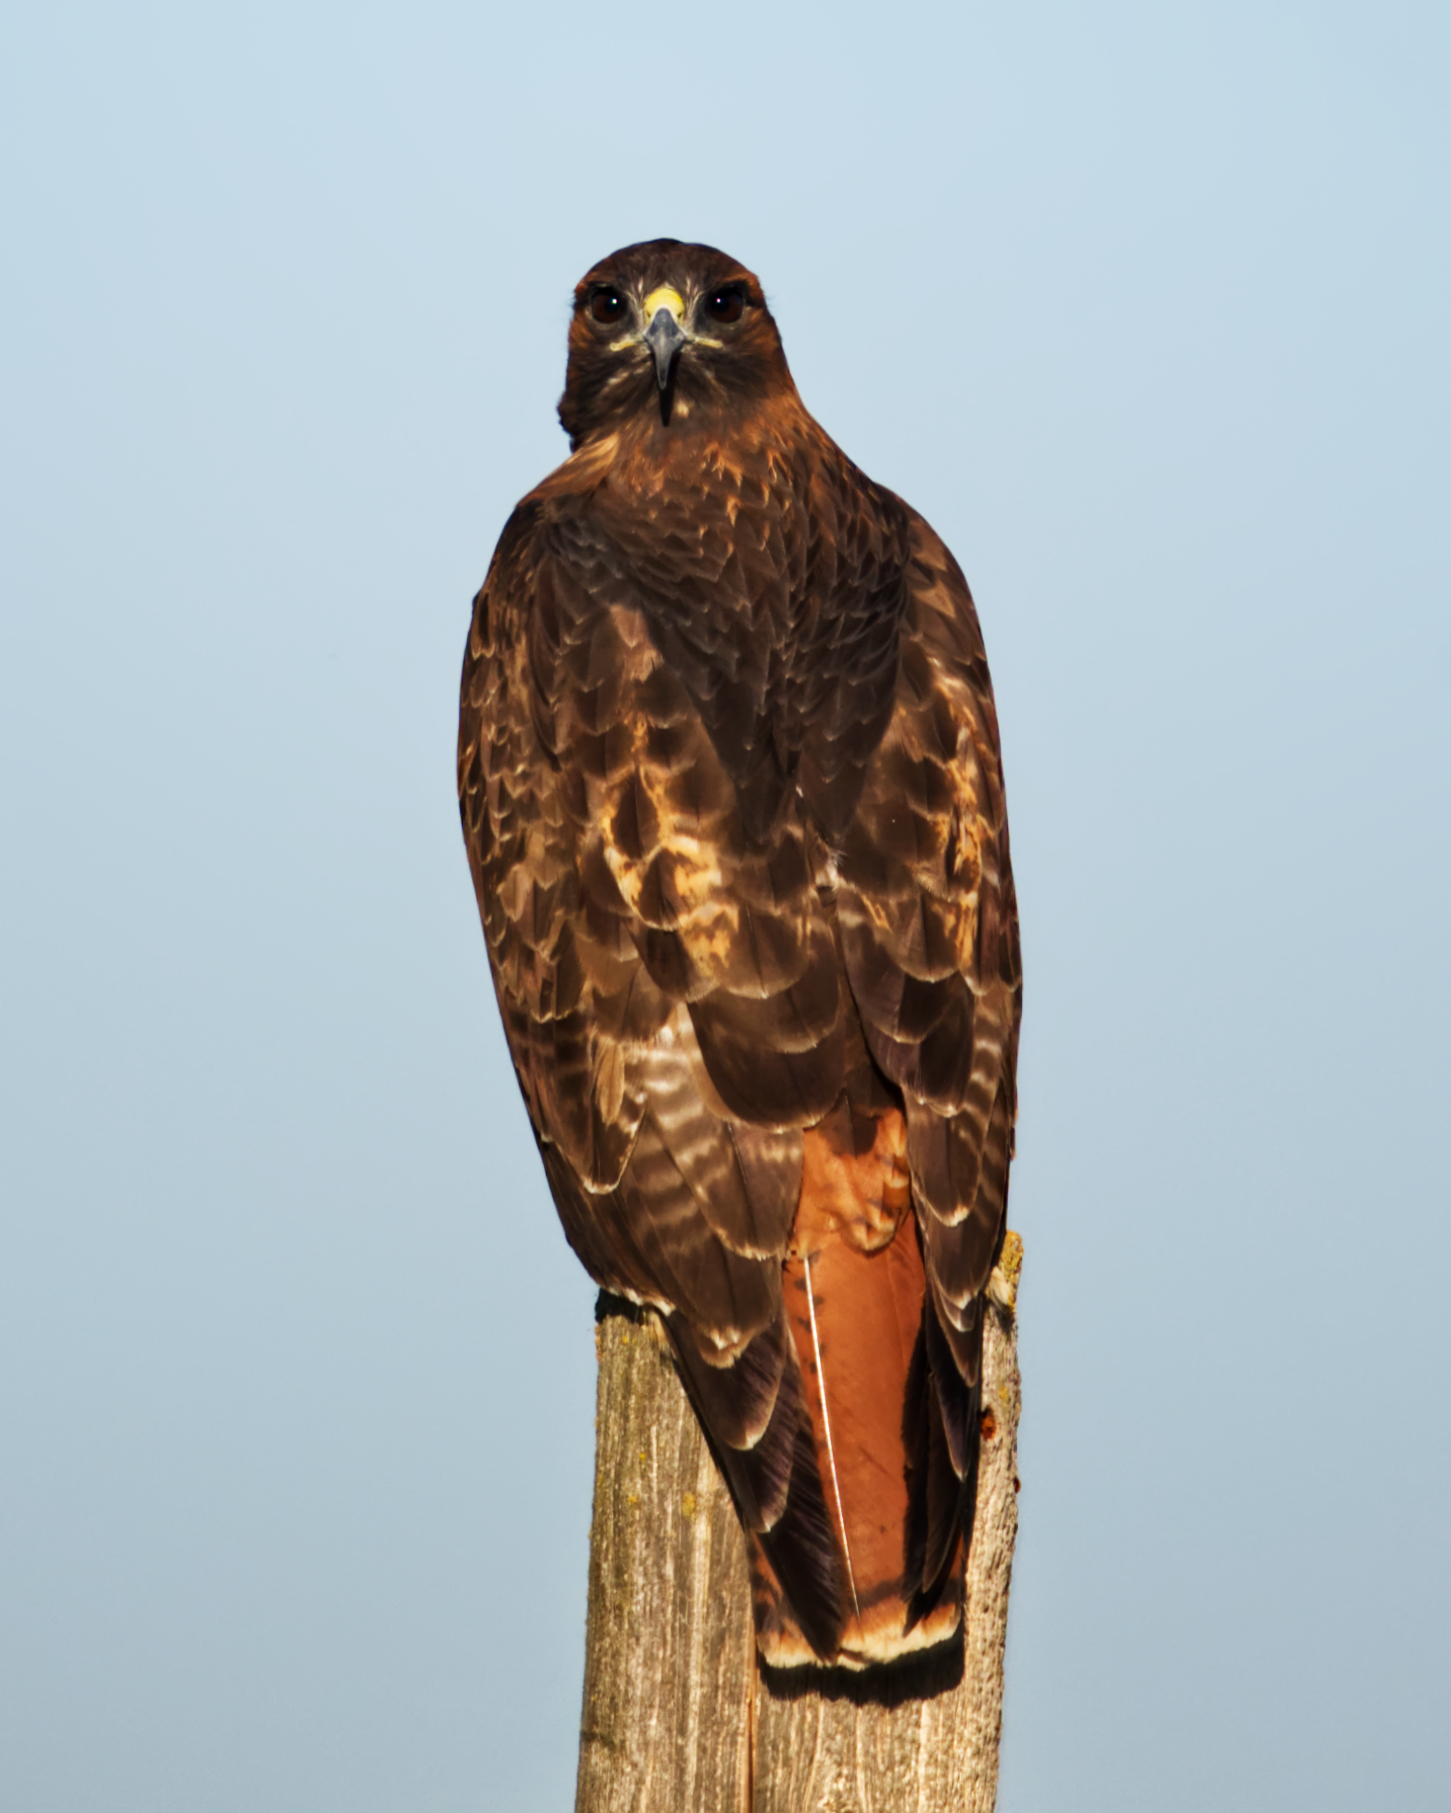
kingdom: Animalia
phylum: Chordata
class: Aves
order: Accipitriformes
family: Accipitridae
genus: Buteo
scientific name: Buteo jamaicensis
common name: Red-tailed hawk
